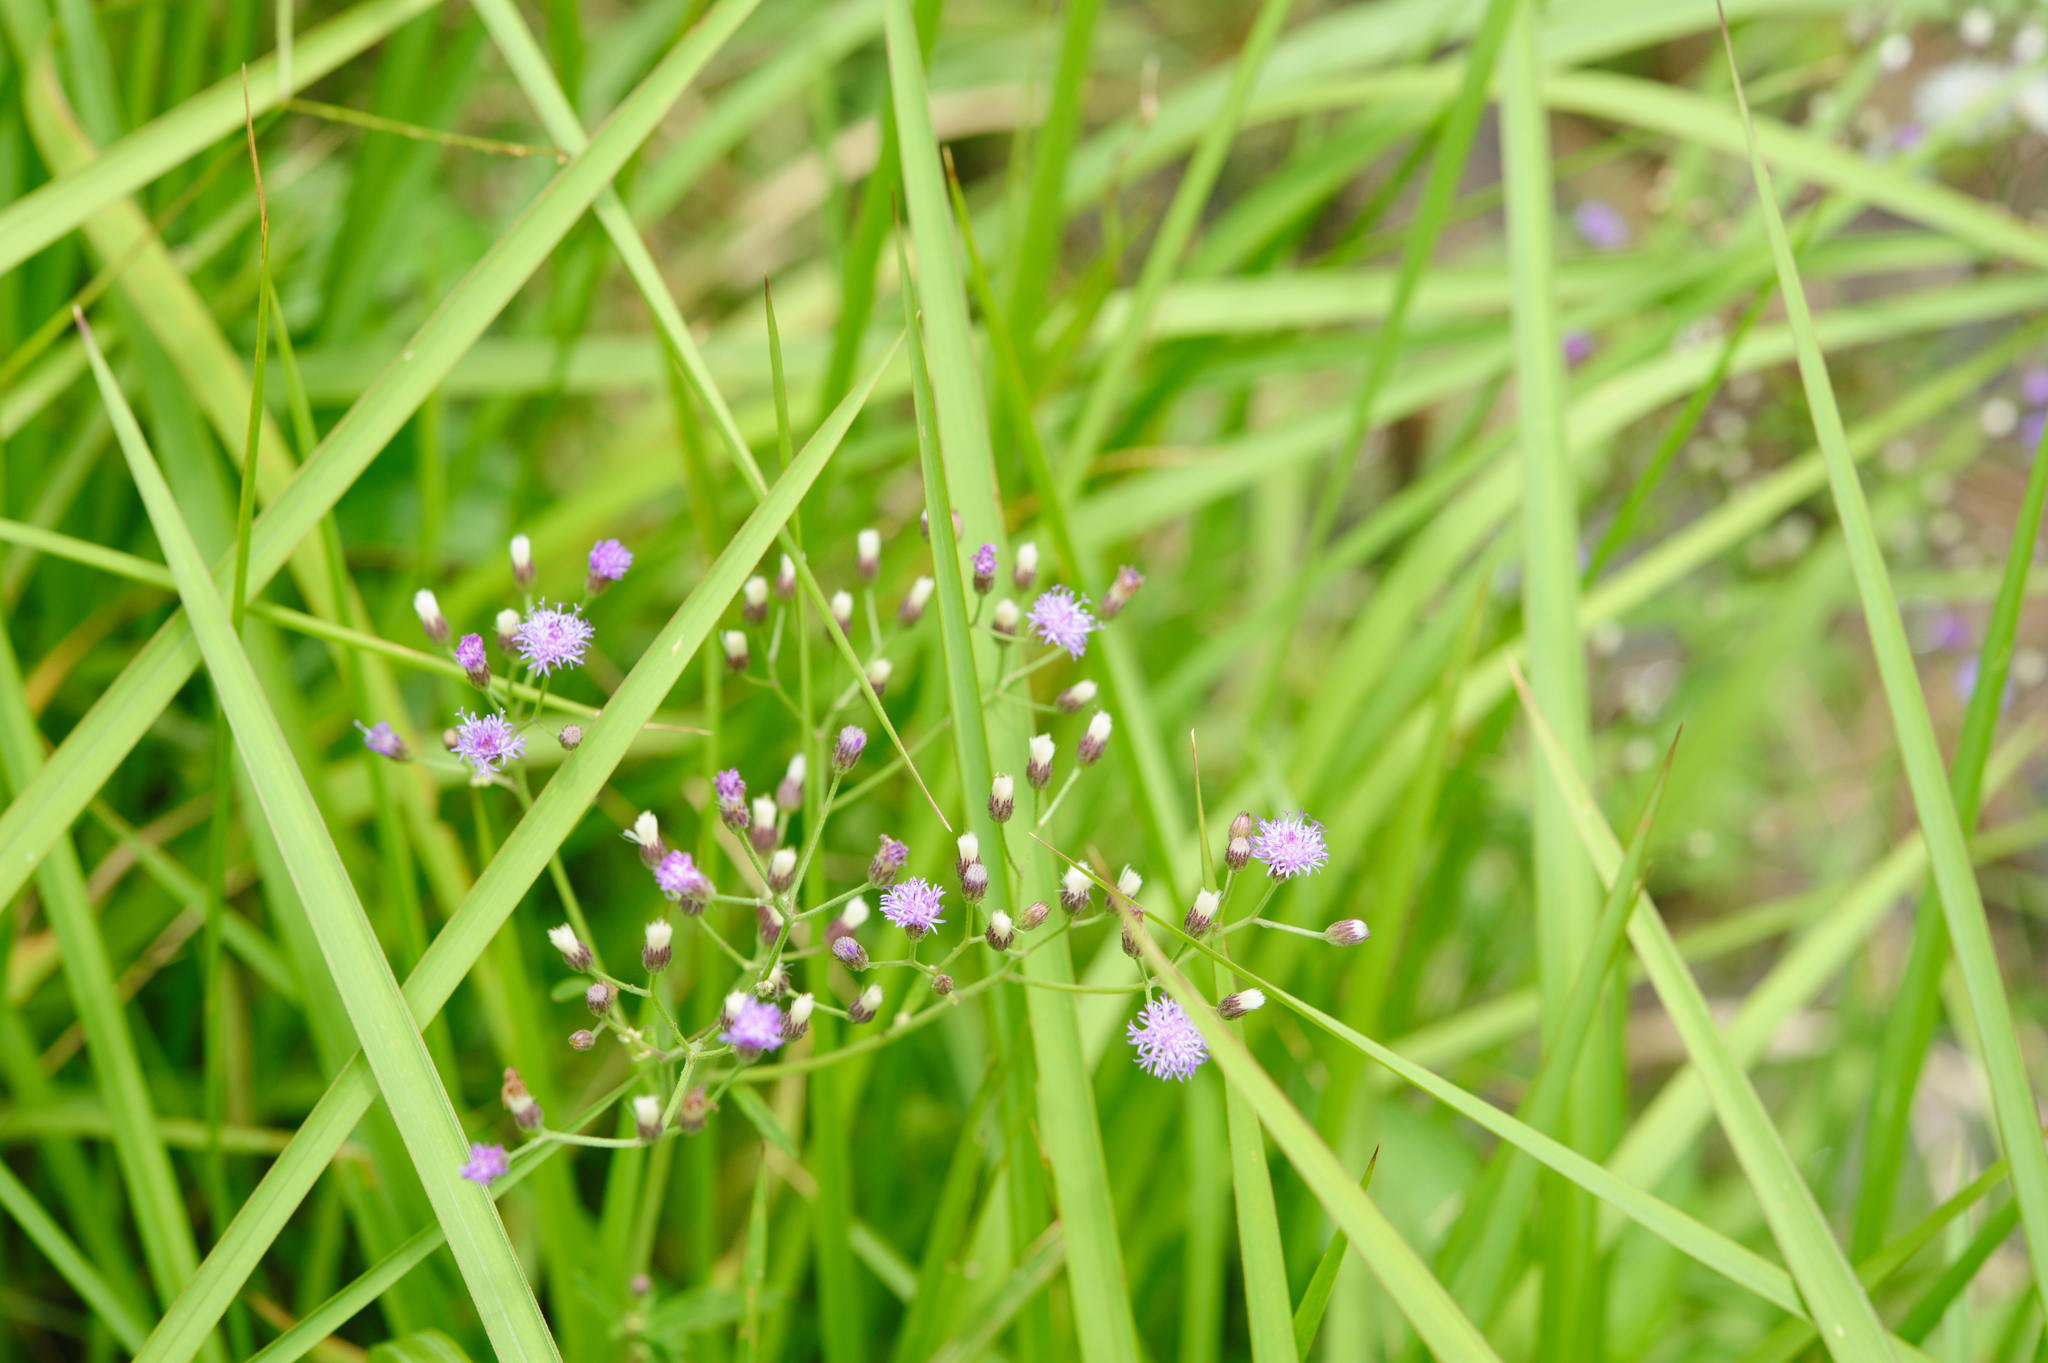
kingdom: Plantae
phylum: Tracheophyta
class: Magnoliopsida
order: Asterales
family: Asteraceae
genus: Cyanthillium
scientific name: Cyanthillium cinereum
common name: Little ironweed
